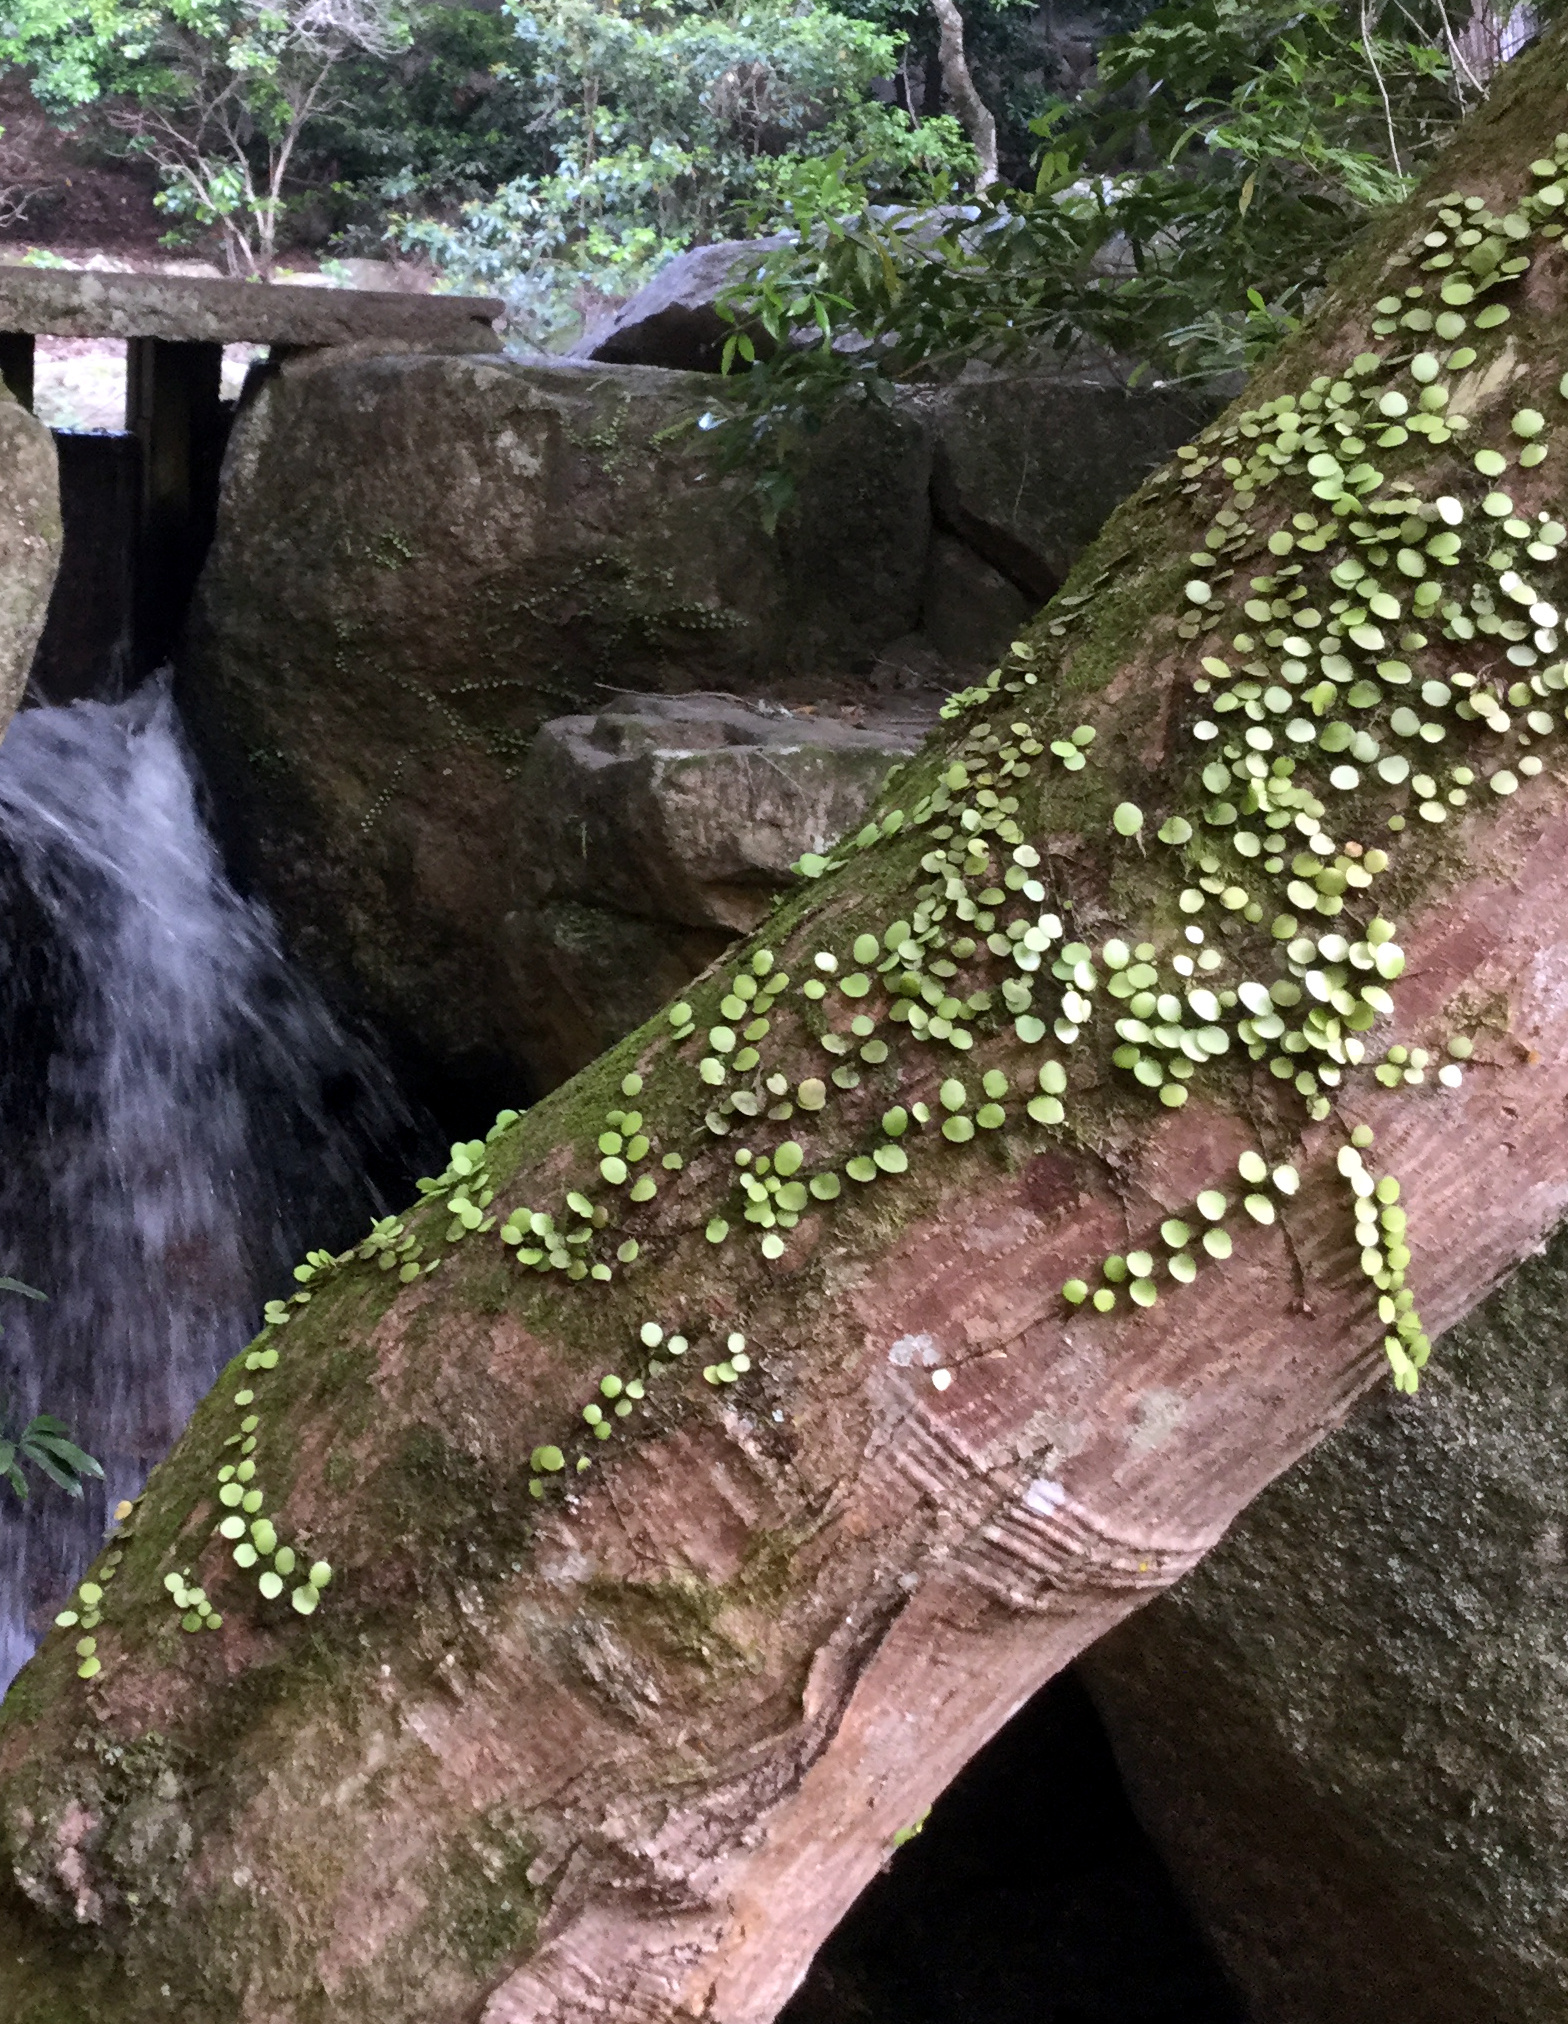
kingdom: Plantae
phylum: Tracheophyta
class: Polypodiopsida
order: Polypodiales
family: Polypodiaceae
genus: Lepisorus
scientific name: Lepisorus microphyllus
